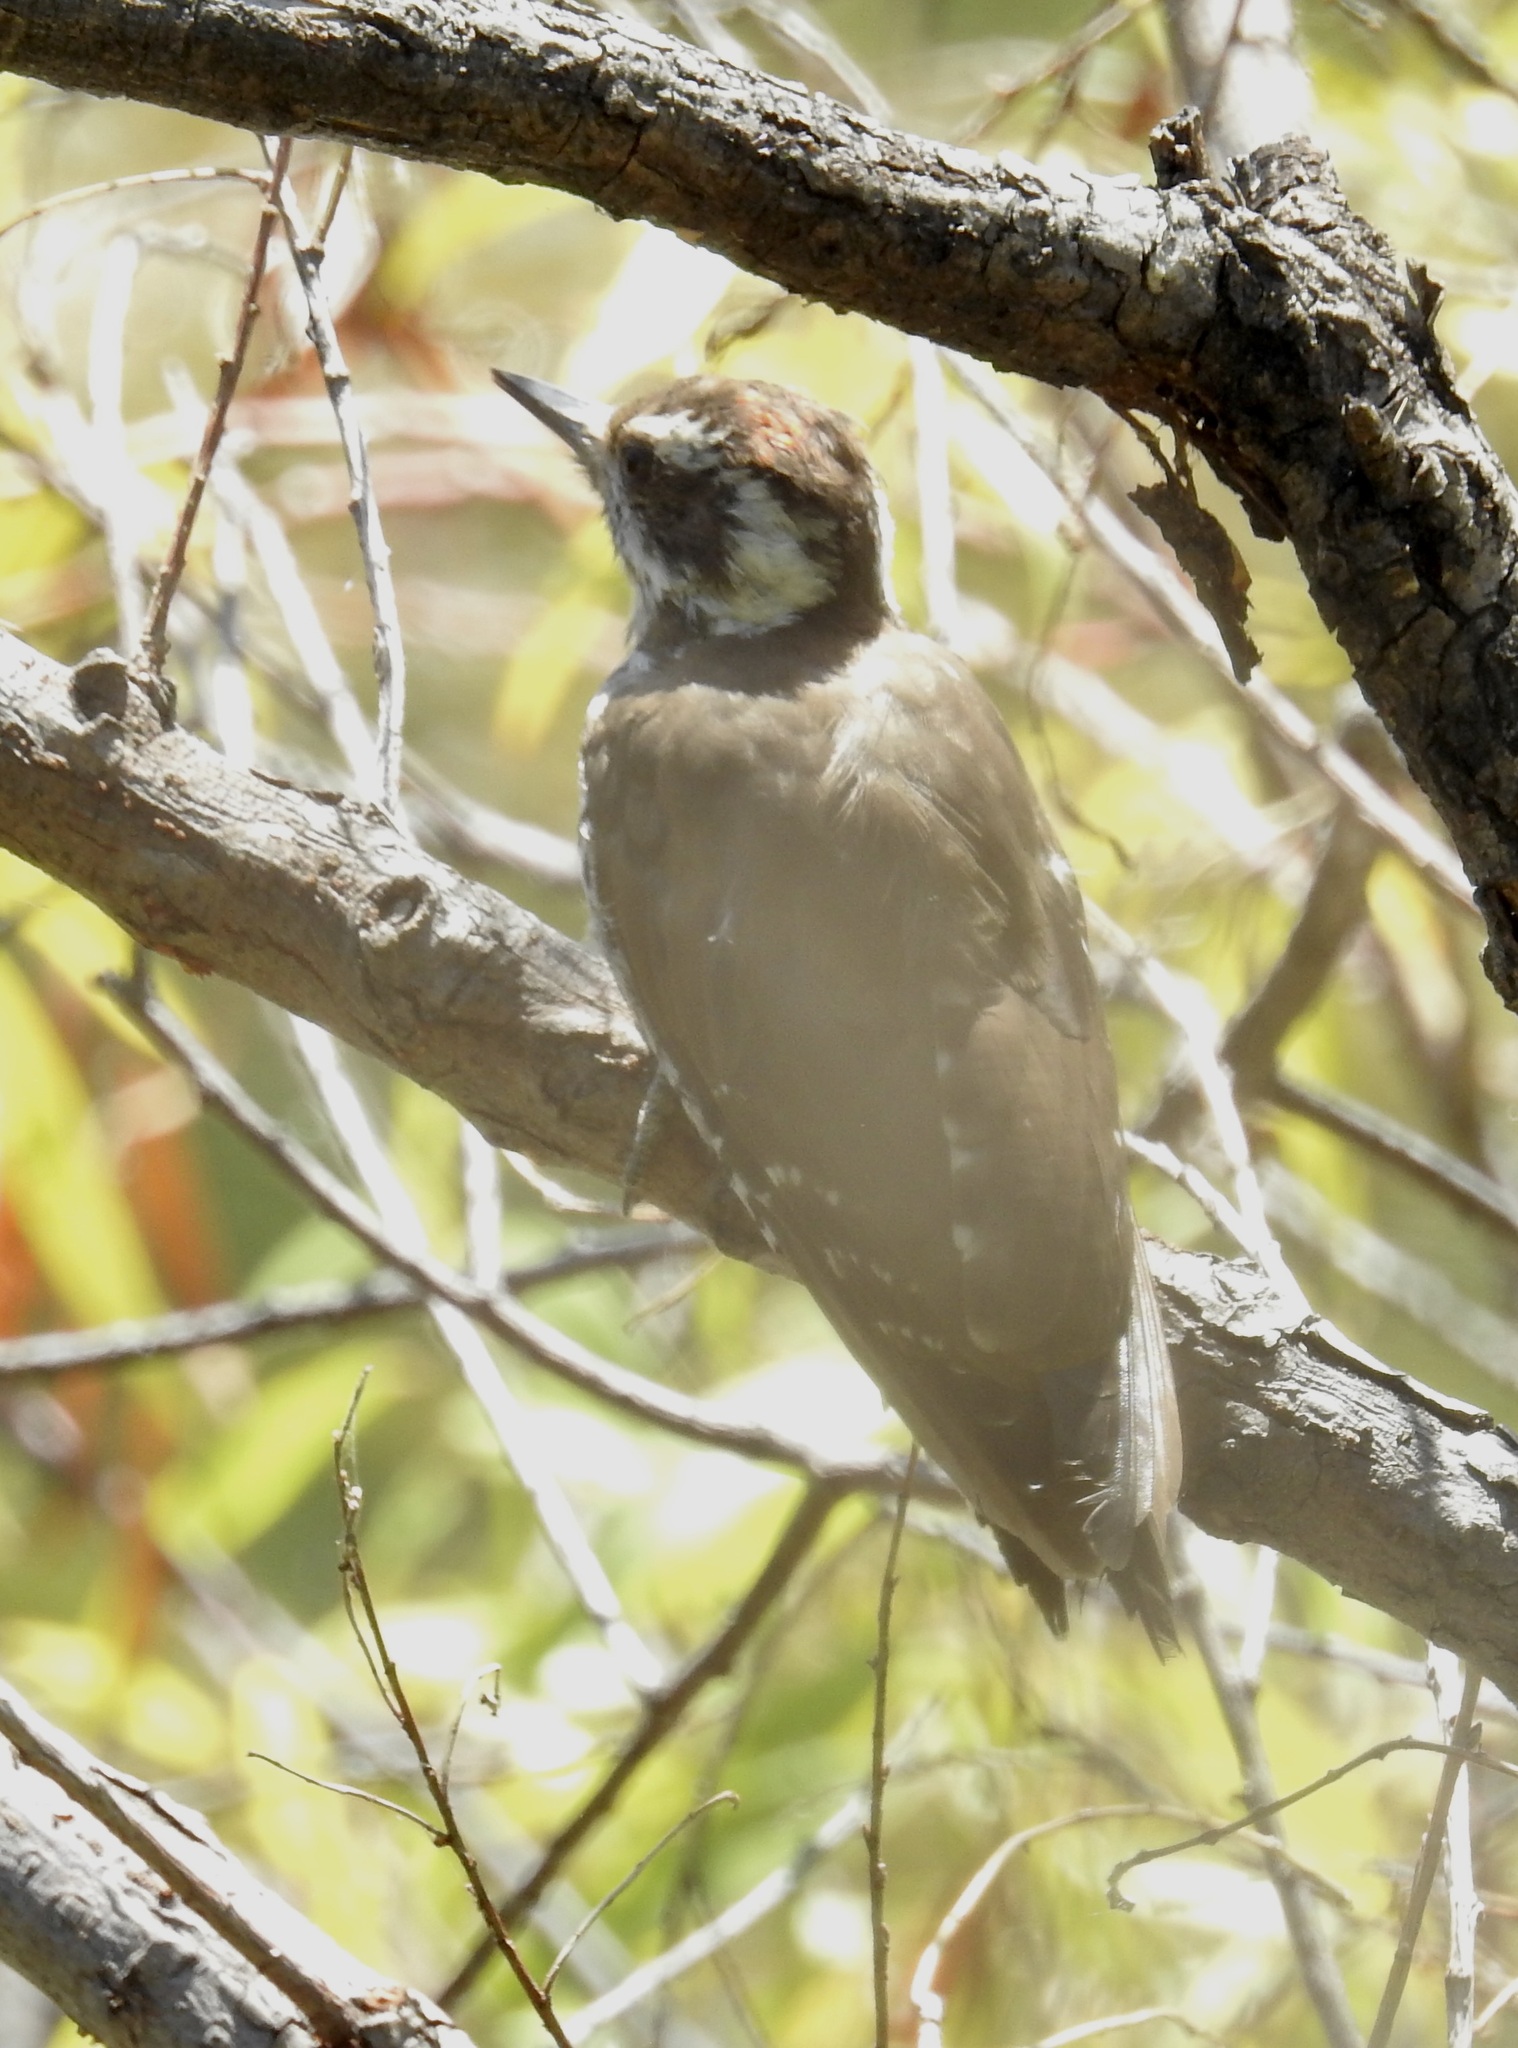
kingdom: Animalia
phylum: Chordata
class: Aves
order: Piciformes
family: Picidae
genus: Leuconotopicus
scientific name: Leuconotopicus arizonae
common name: Arizona woodpecker
